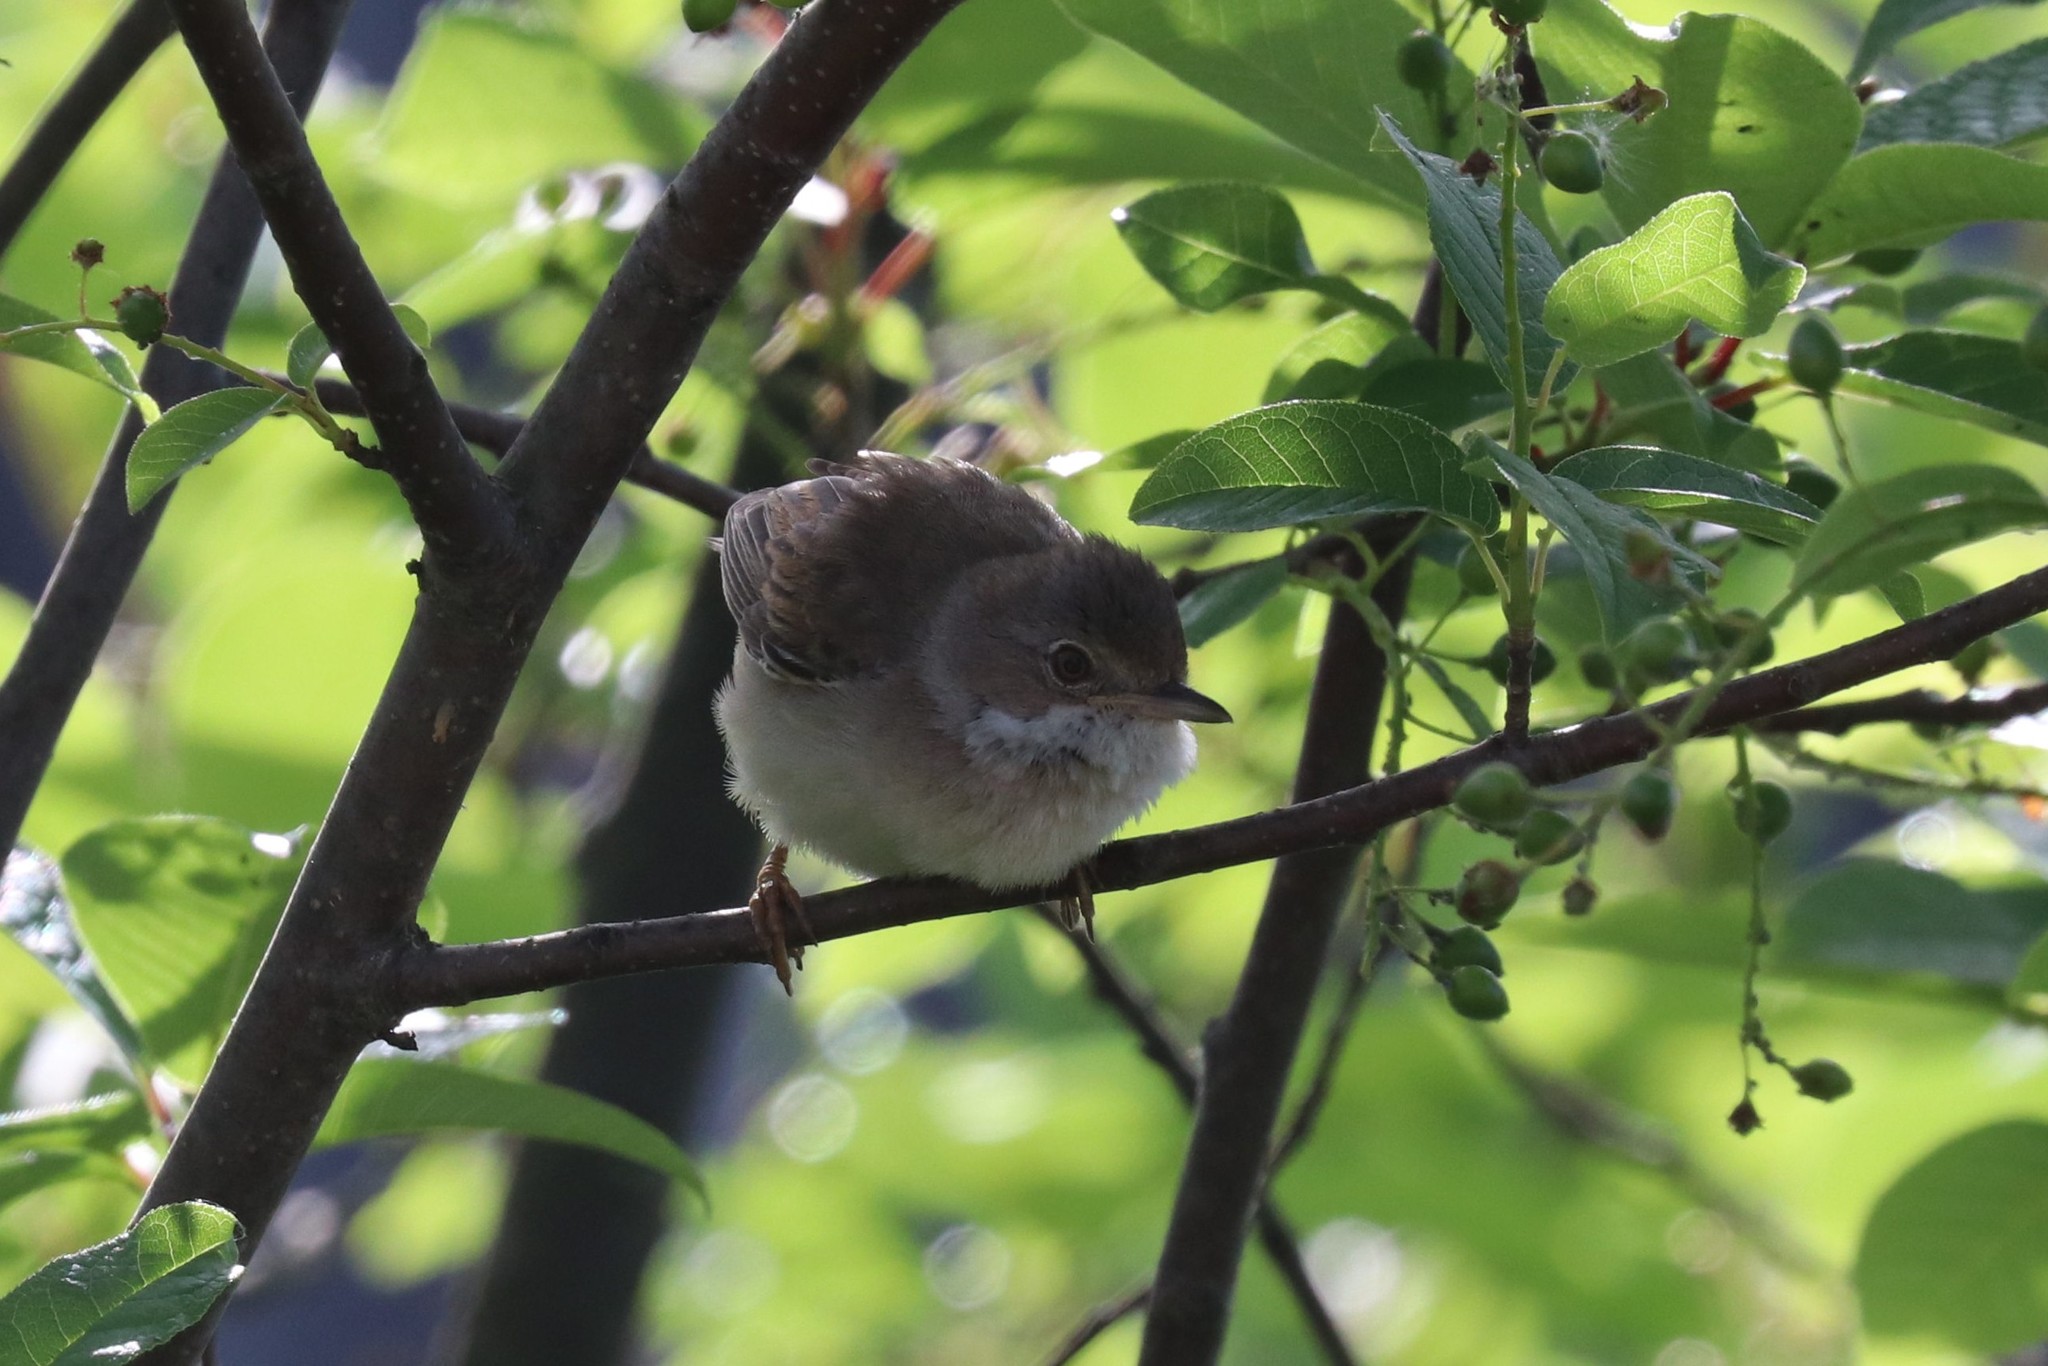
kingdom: Animalia
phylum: Chordata
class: Aves
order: Passeriformes
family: Sylviidae
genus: Sylvia
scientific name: Sylvia communis
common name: Common whitethroat
